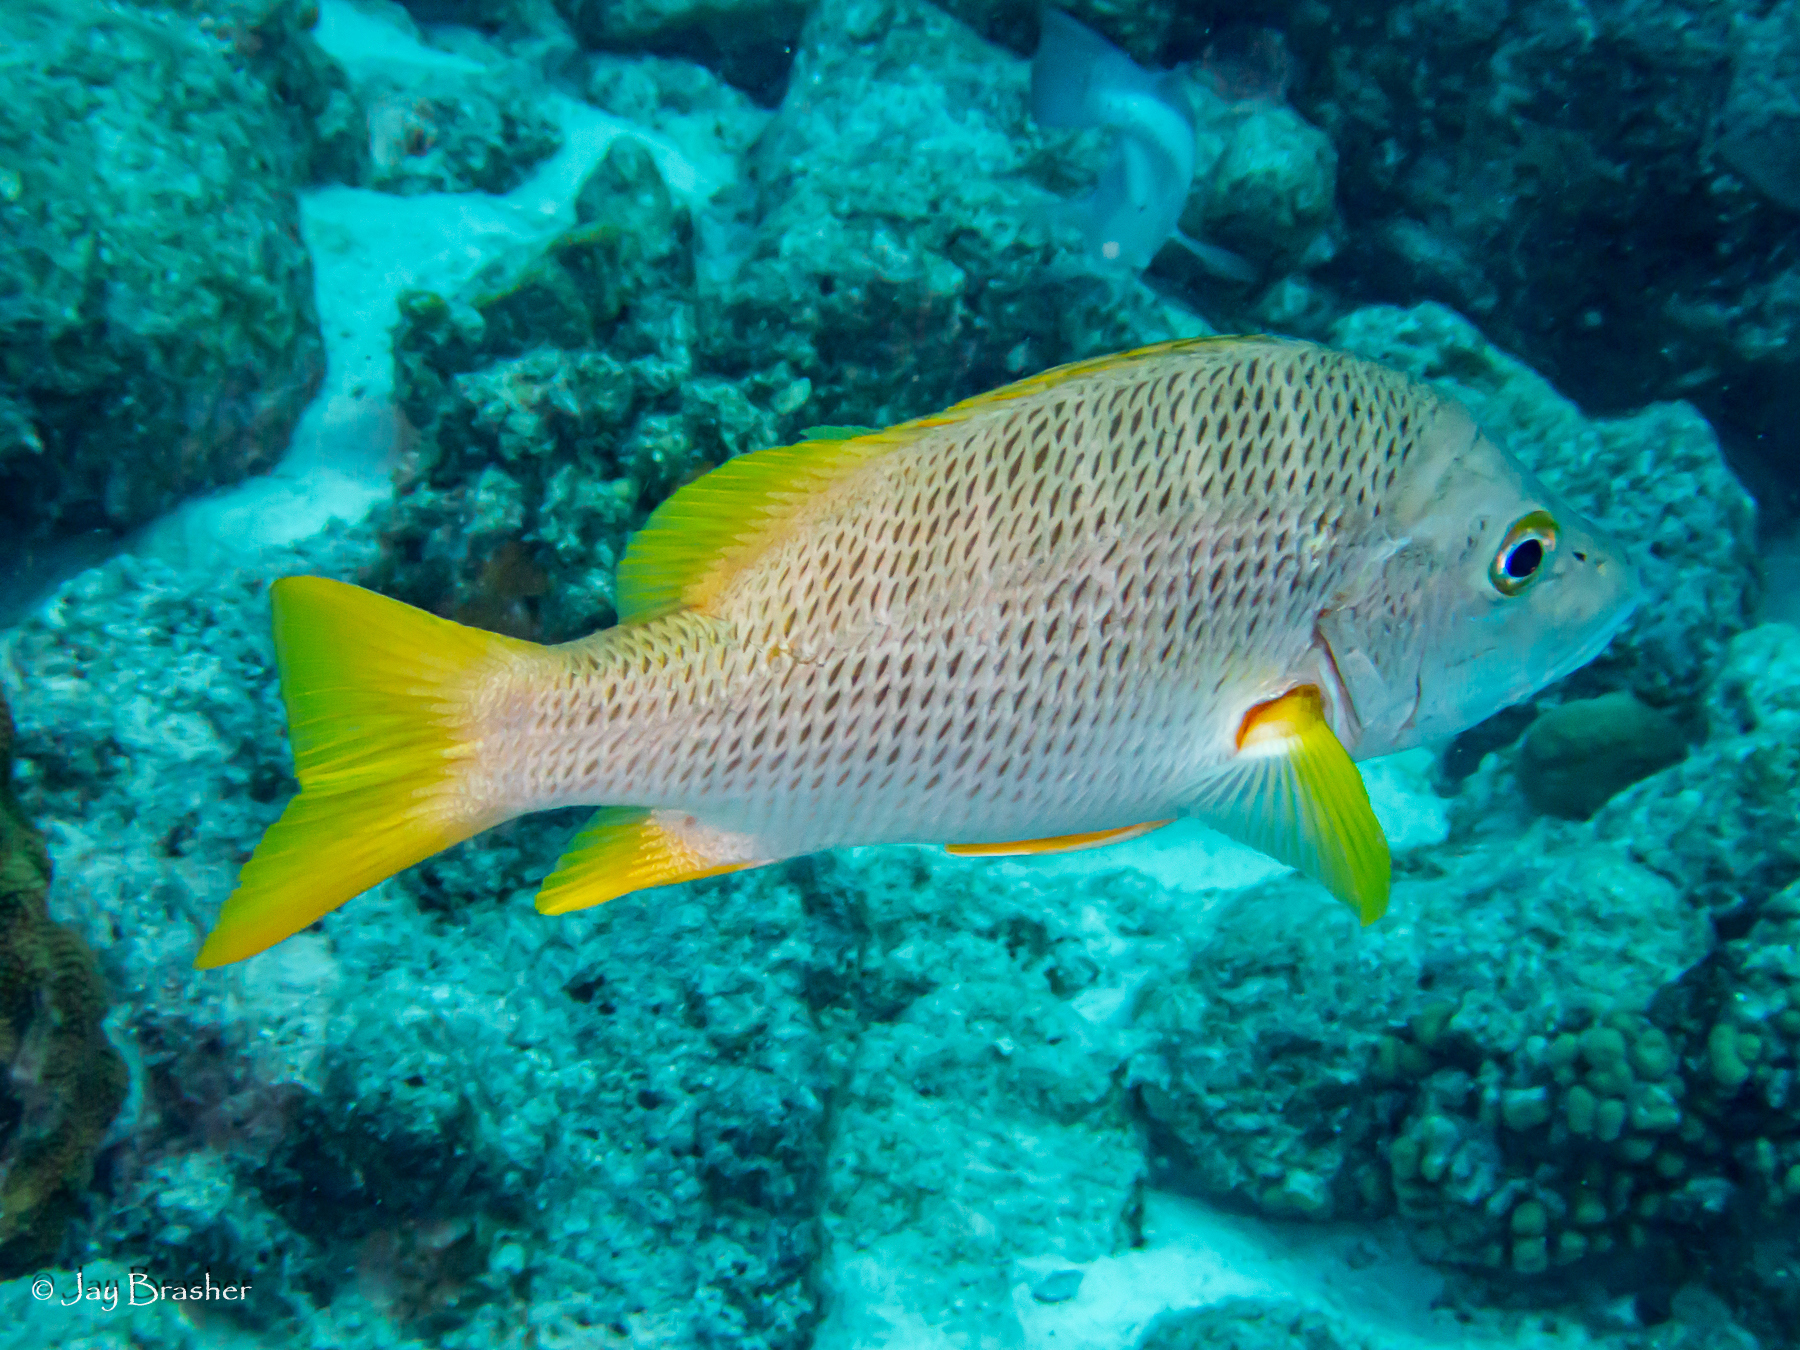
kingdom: Animalia
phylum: Chordata
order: Perciformes
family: Lutjanidae
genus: Lutjanus
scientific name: Lutjanus apodus
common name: Schoolmaster
